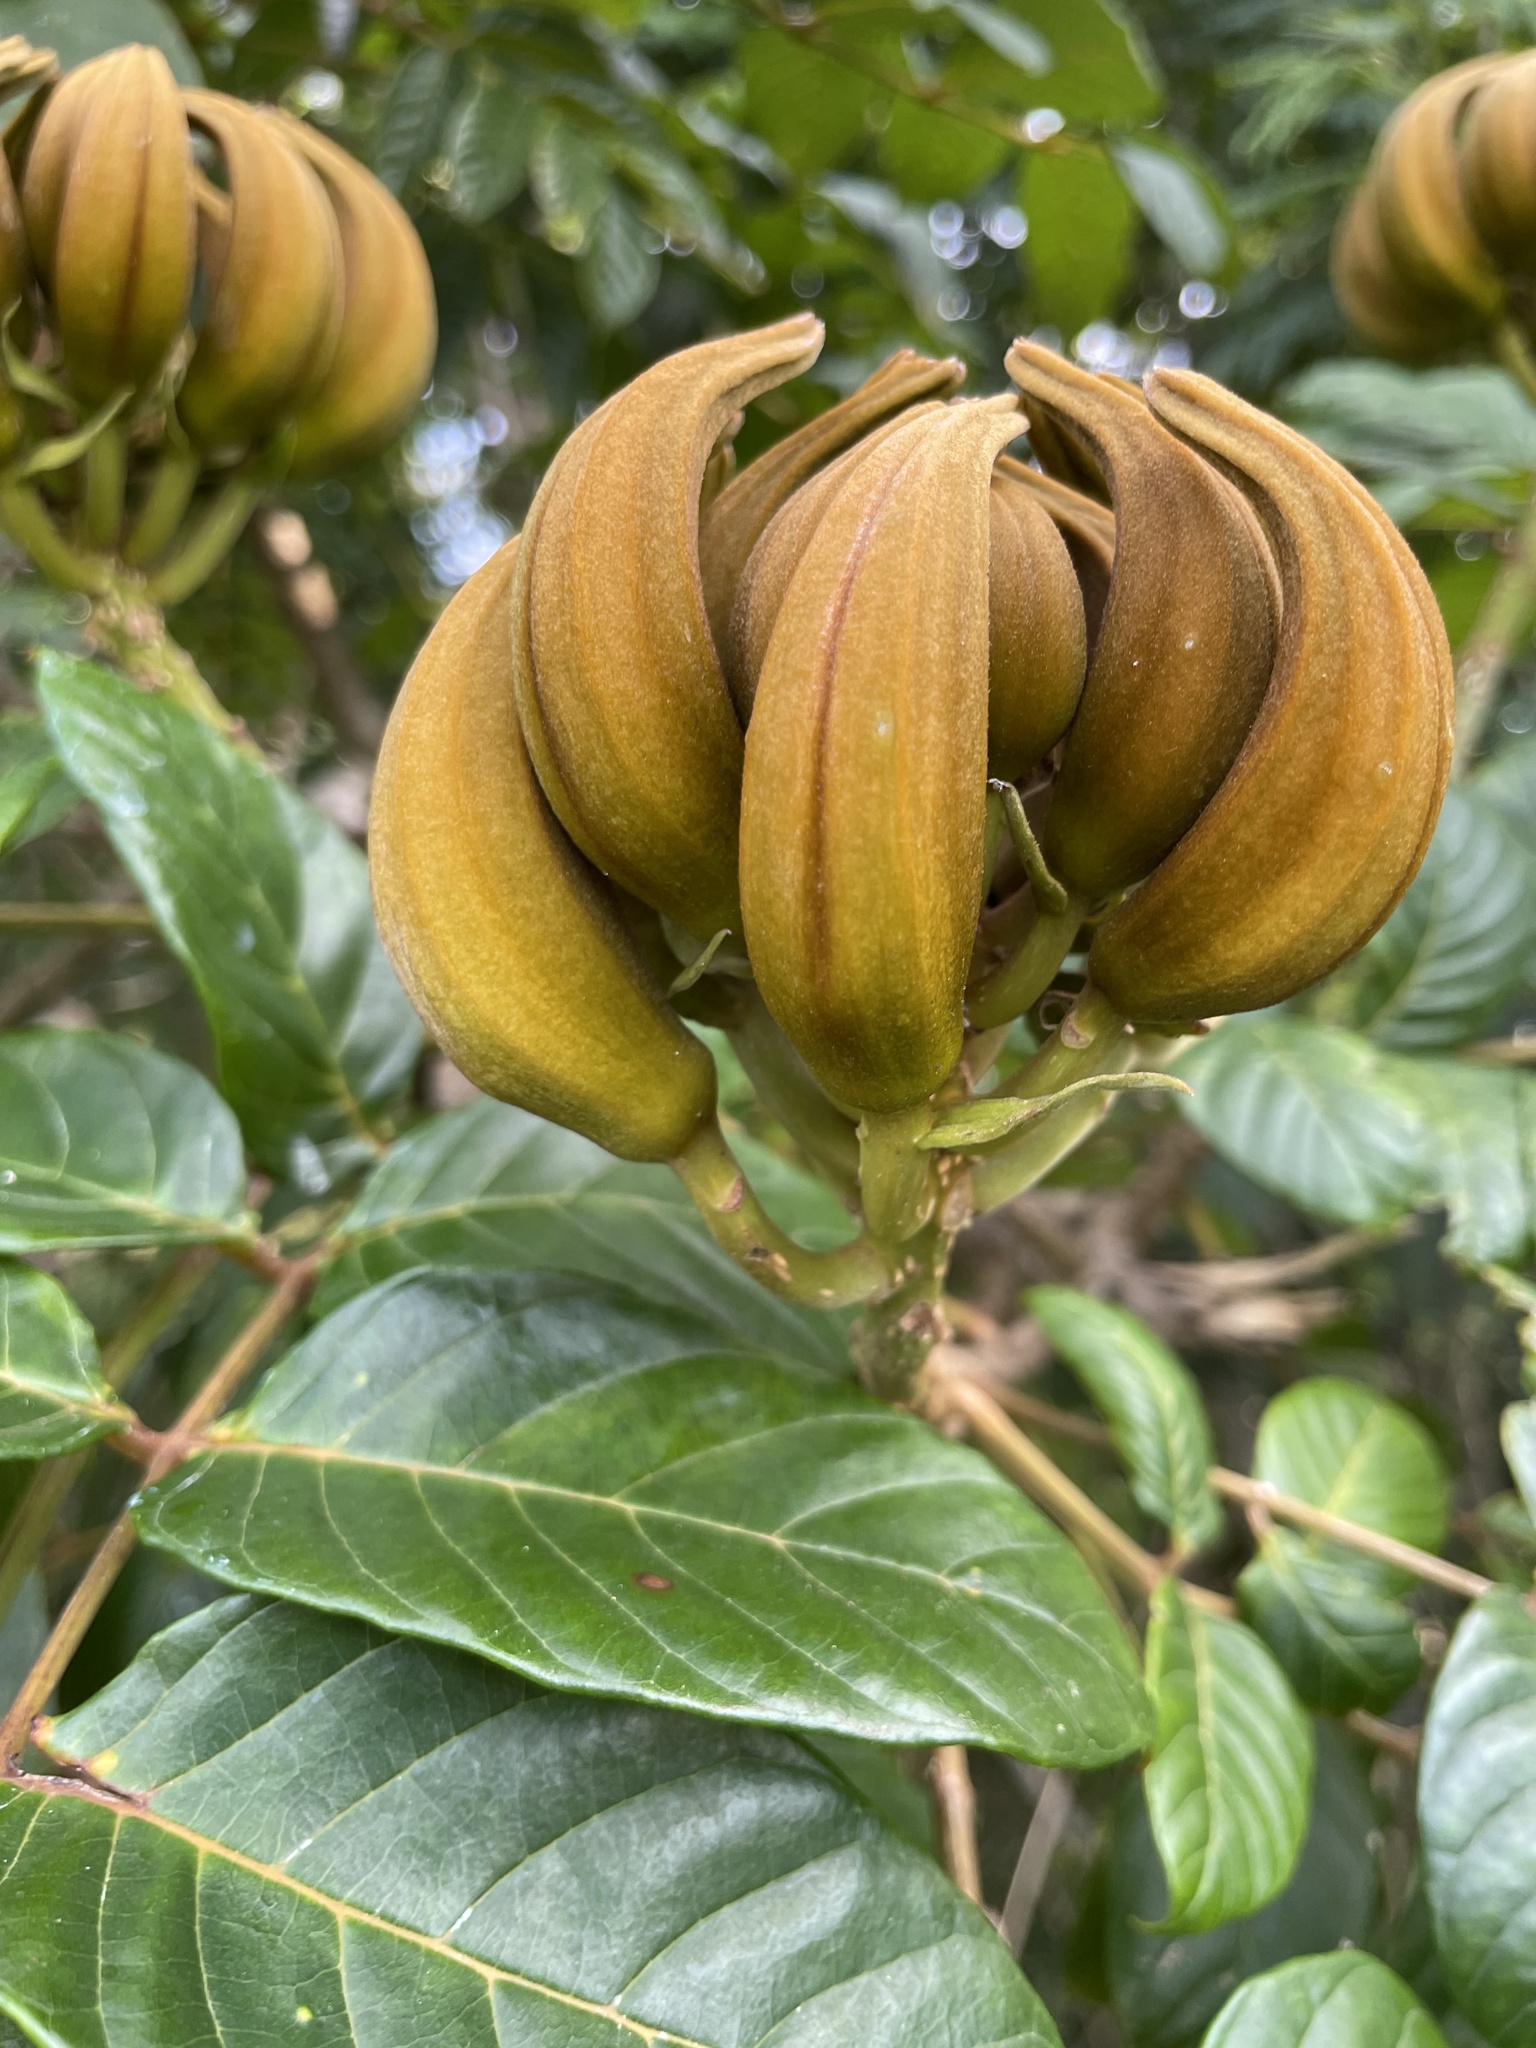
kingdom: Plantae
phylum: Tracheophyta
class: Magnoliopsida
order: Lamiales
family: Bignoniaceae
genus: Spathodea
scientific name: Spathodea campanulata
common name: African tuliptree
